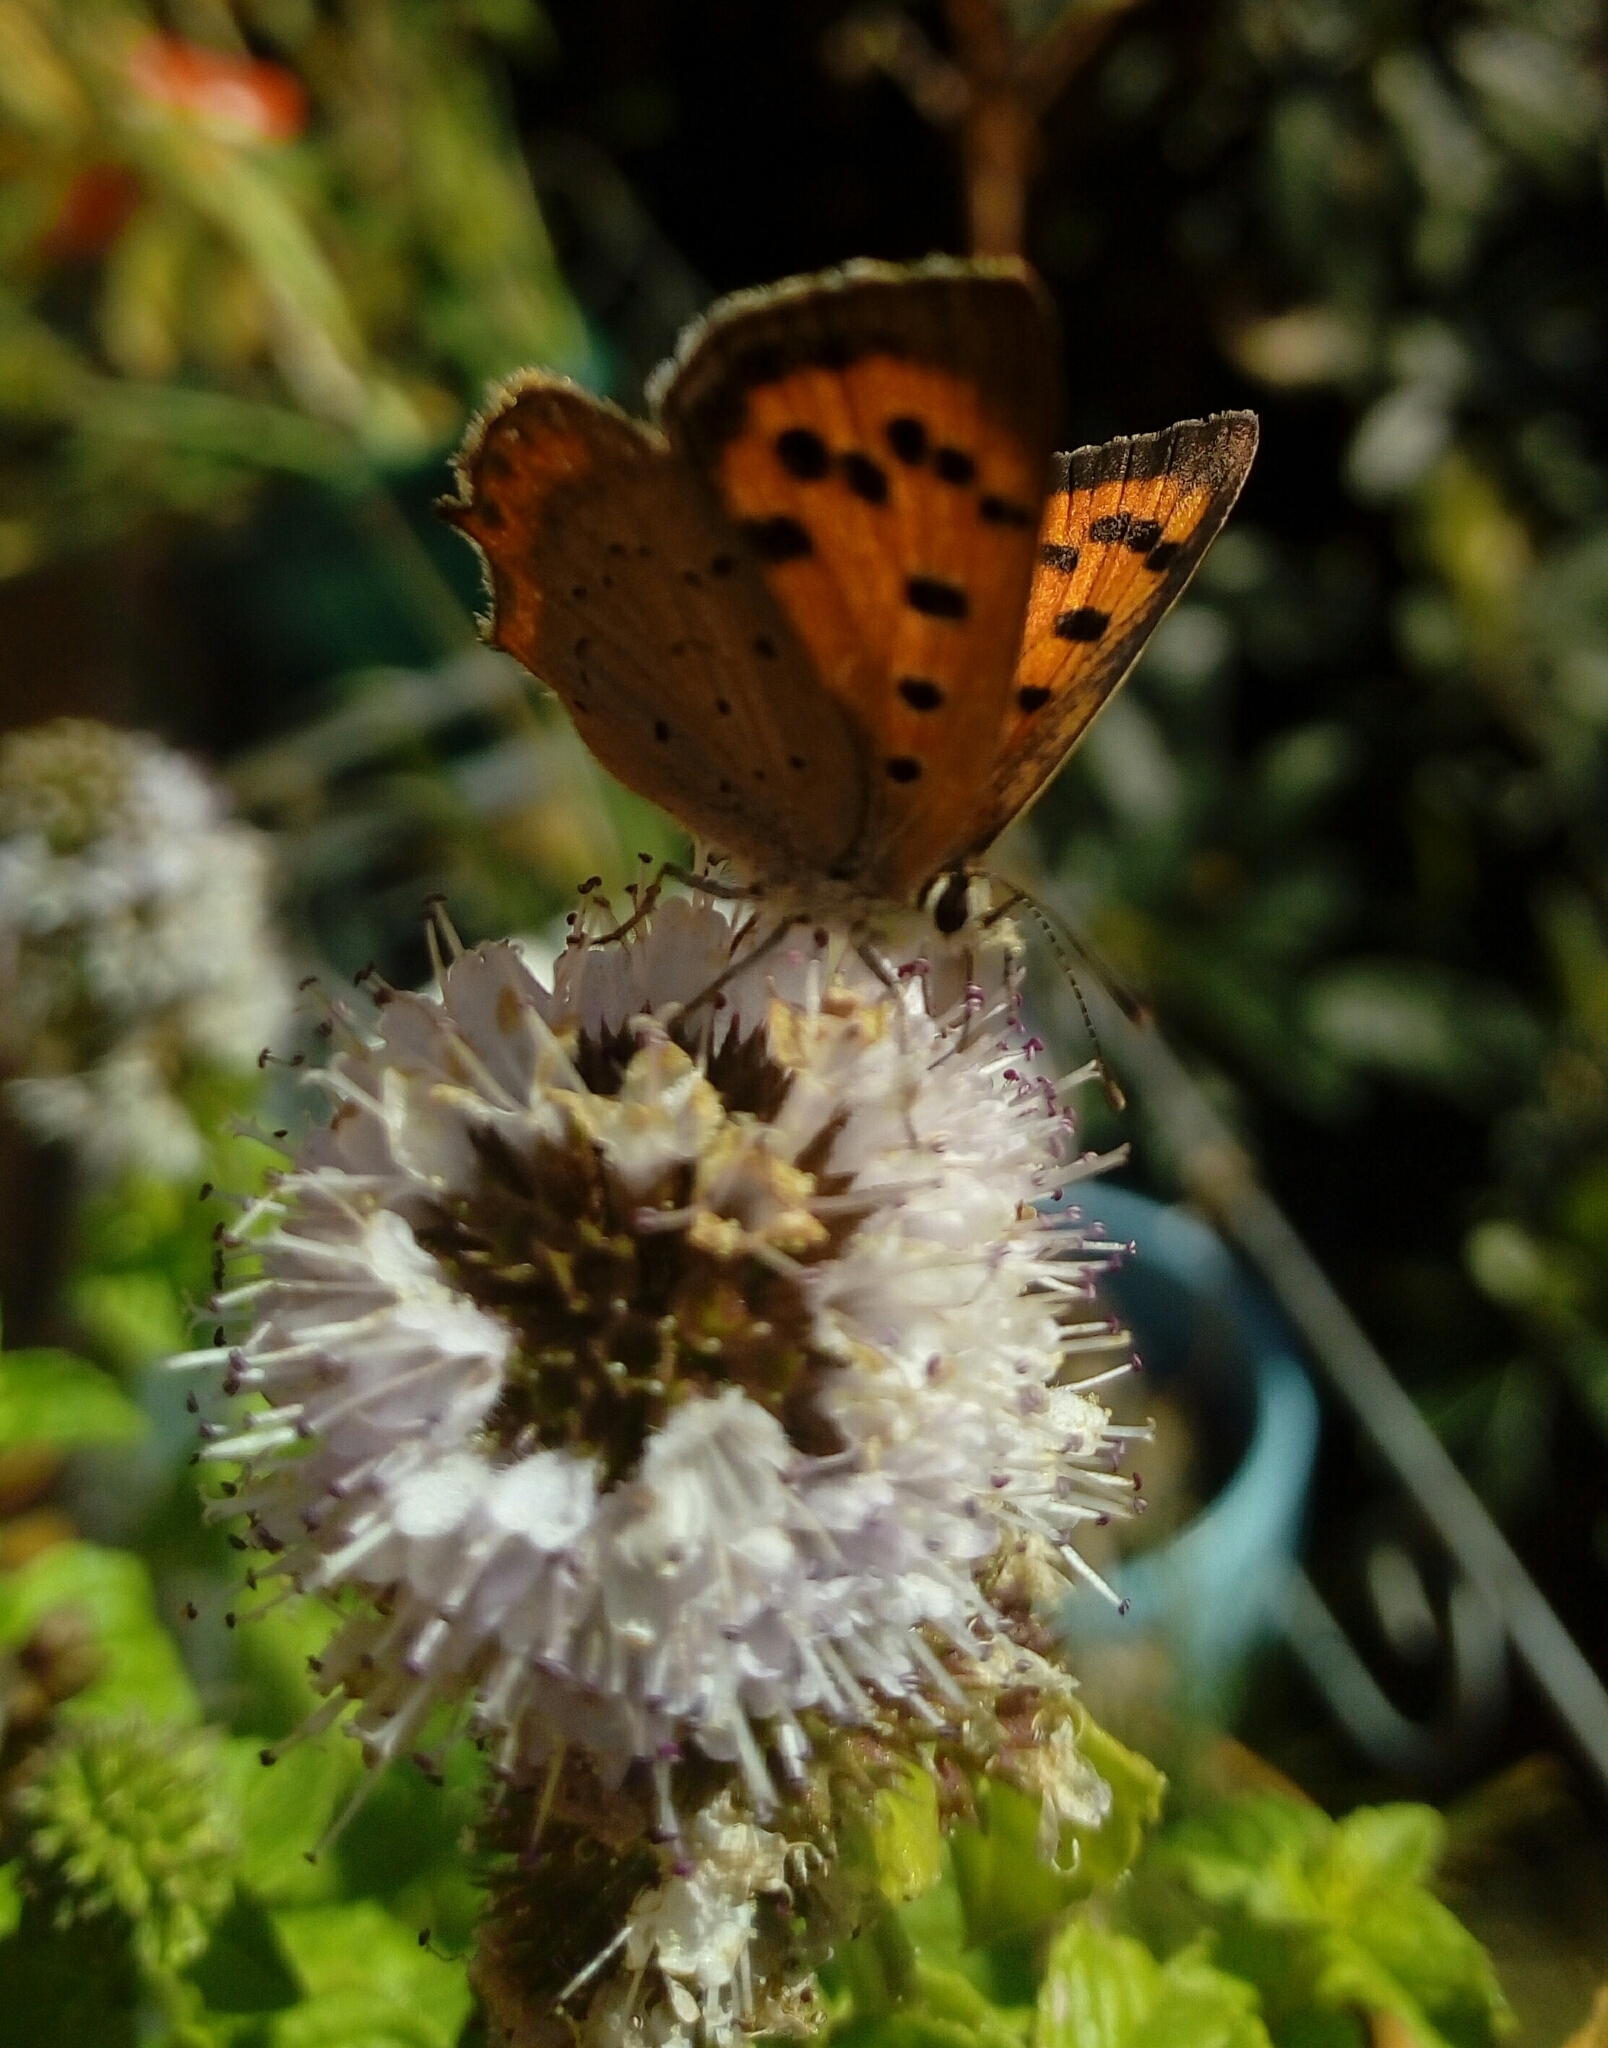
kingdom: Animalia
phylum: Arthropoda
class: Insecta
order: Lepidoptera
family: Lycaenidae
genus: Lycaena
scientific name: Lycaena phlaeas
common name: Small copper
